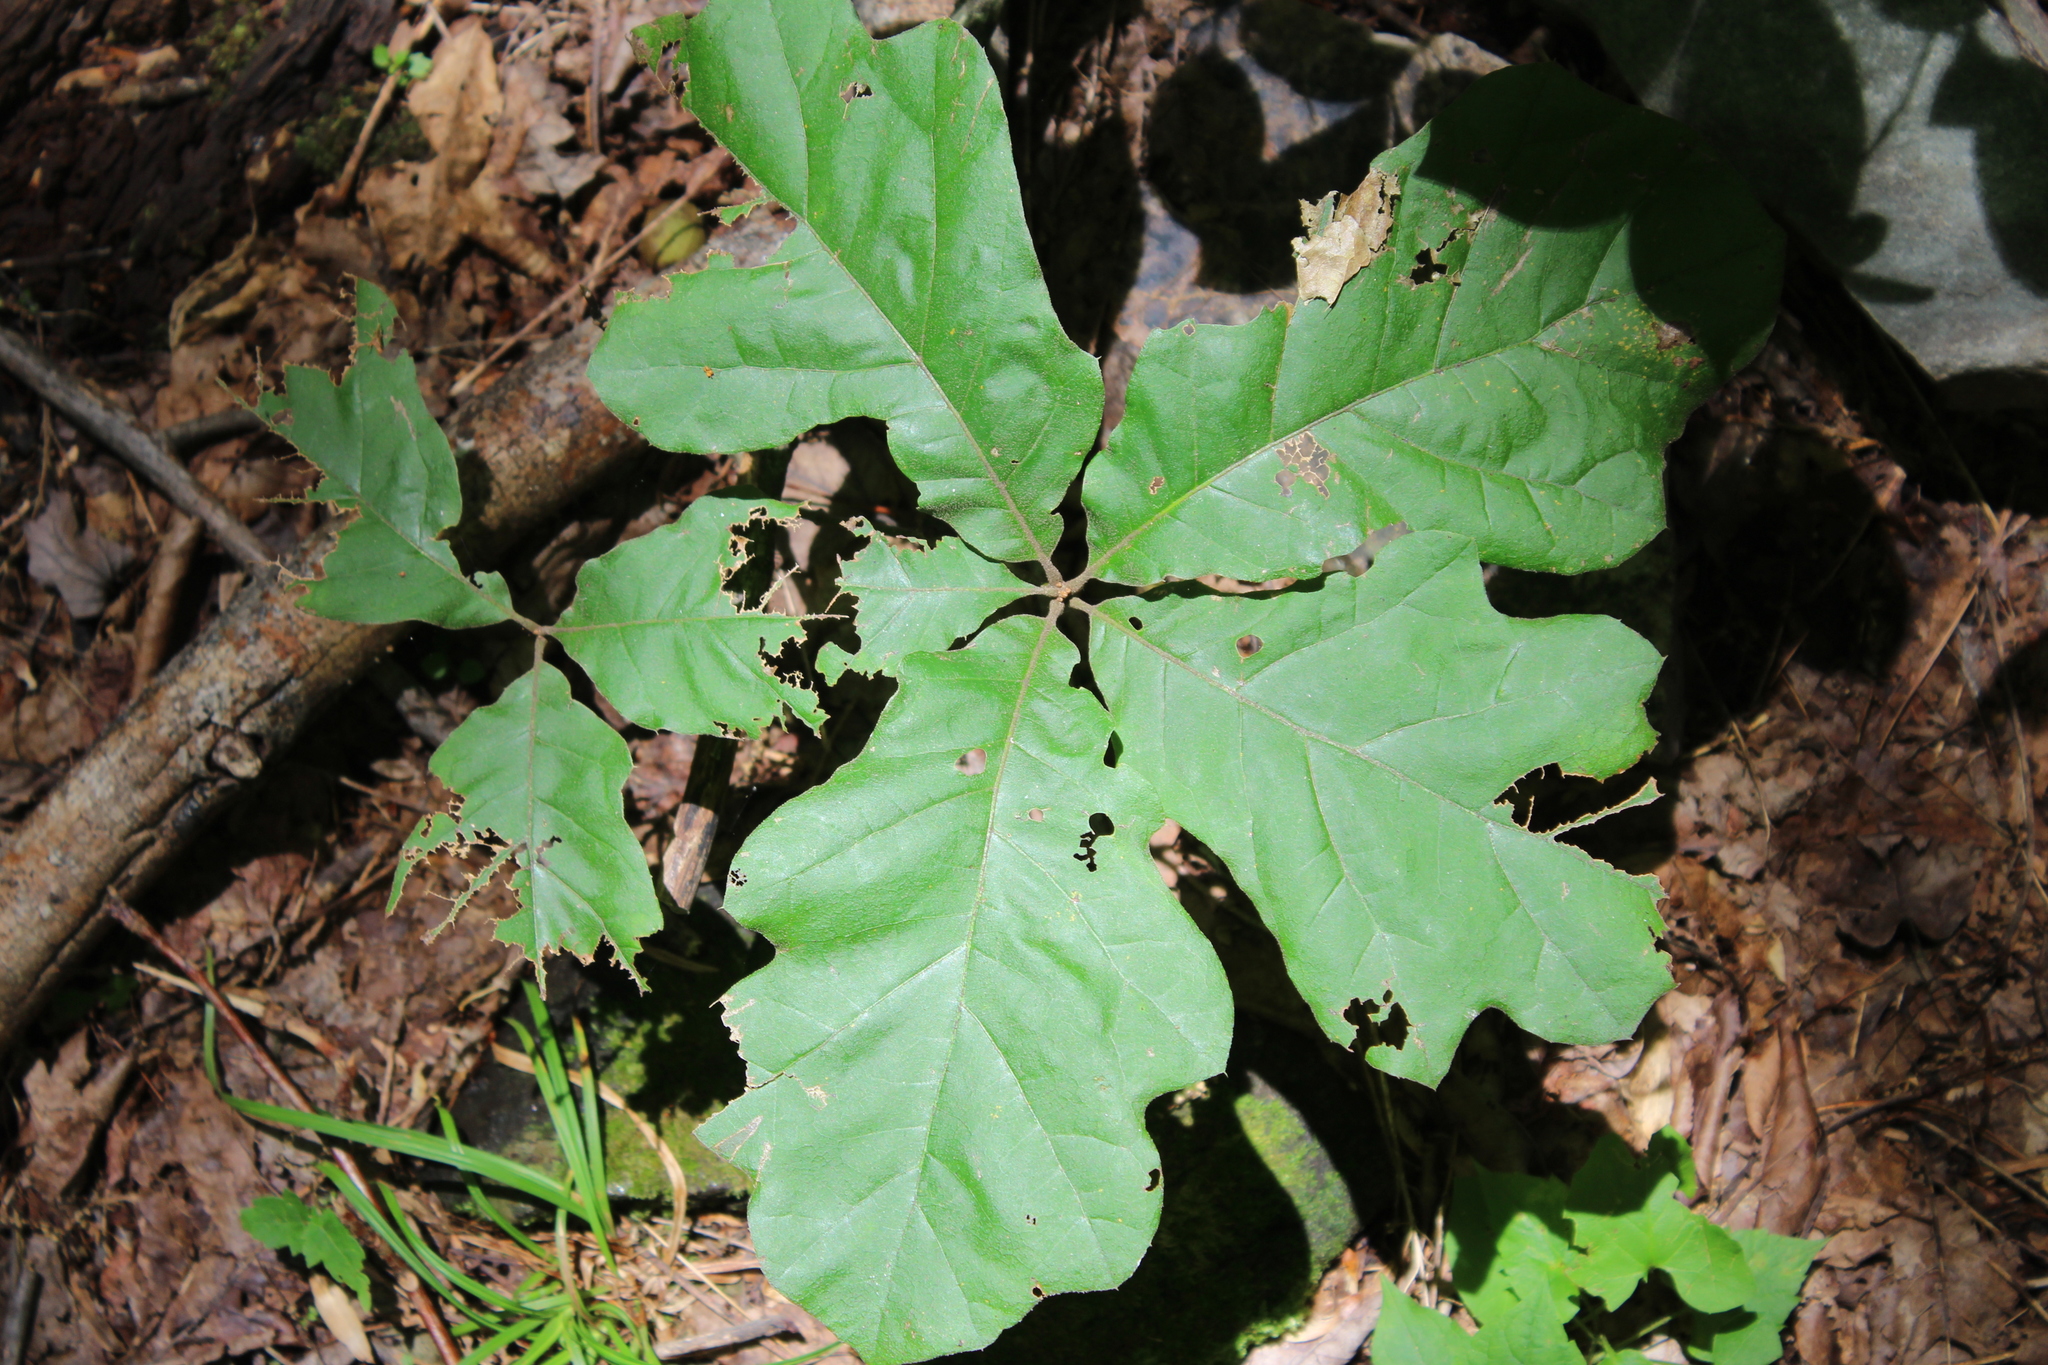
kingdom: Plantae
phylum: Tracheophyta
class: Magnoliopsida
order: Fagales
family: Fagaceae
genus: Quercus
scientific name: Quercus velutina
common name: Black oak
